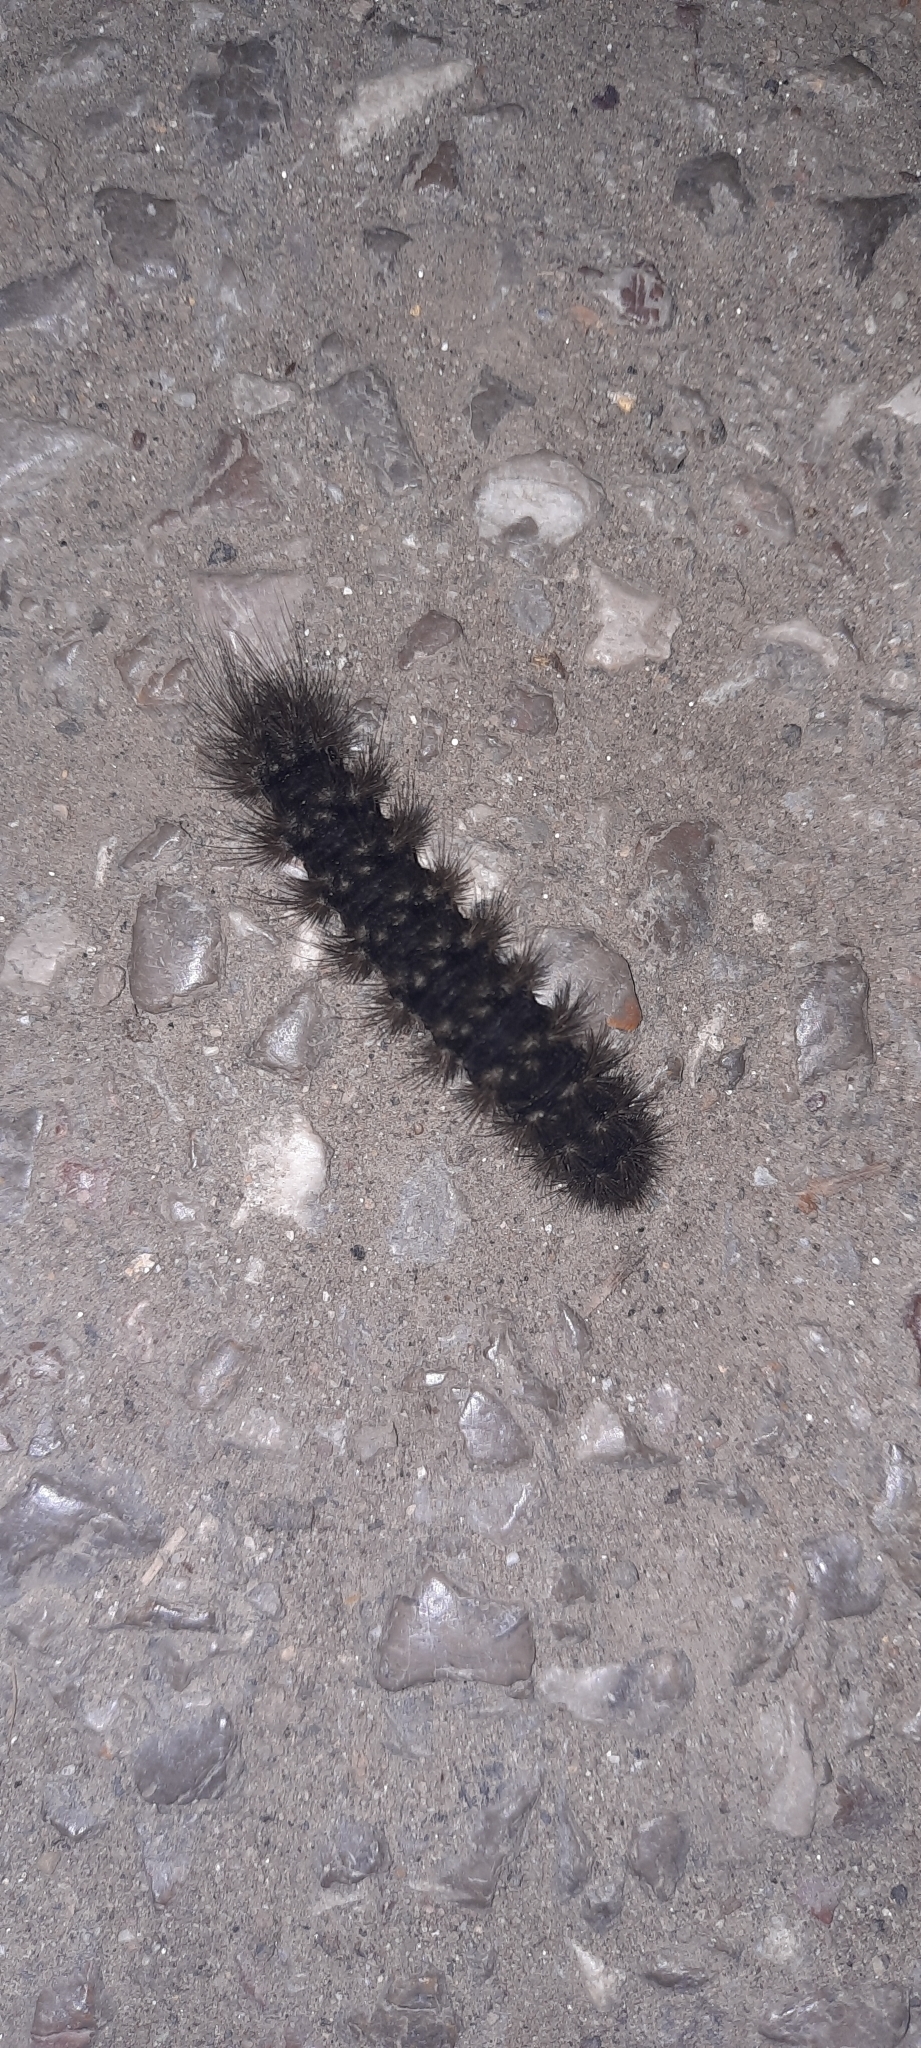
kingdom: Animalia
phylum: Arthropoda
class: Insecta
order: Lepidoptera
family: Erebidae
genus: Epicallia
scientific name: Epicallia villica
